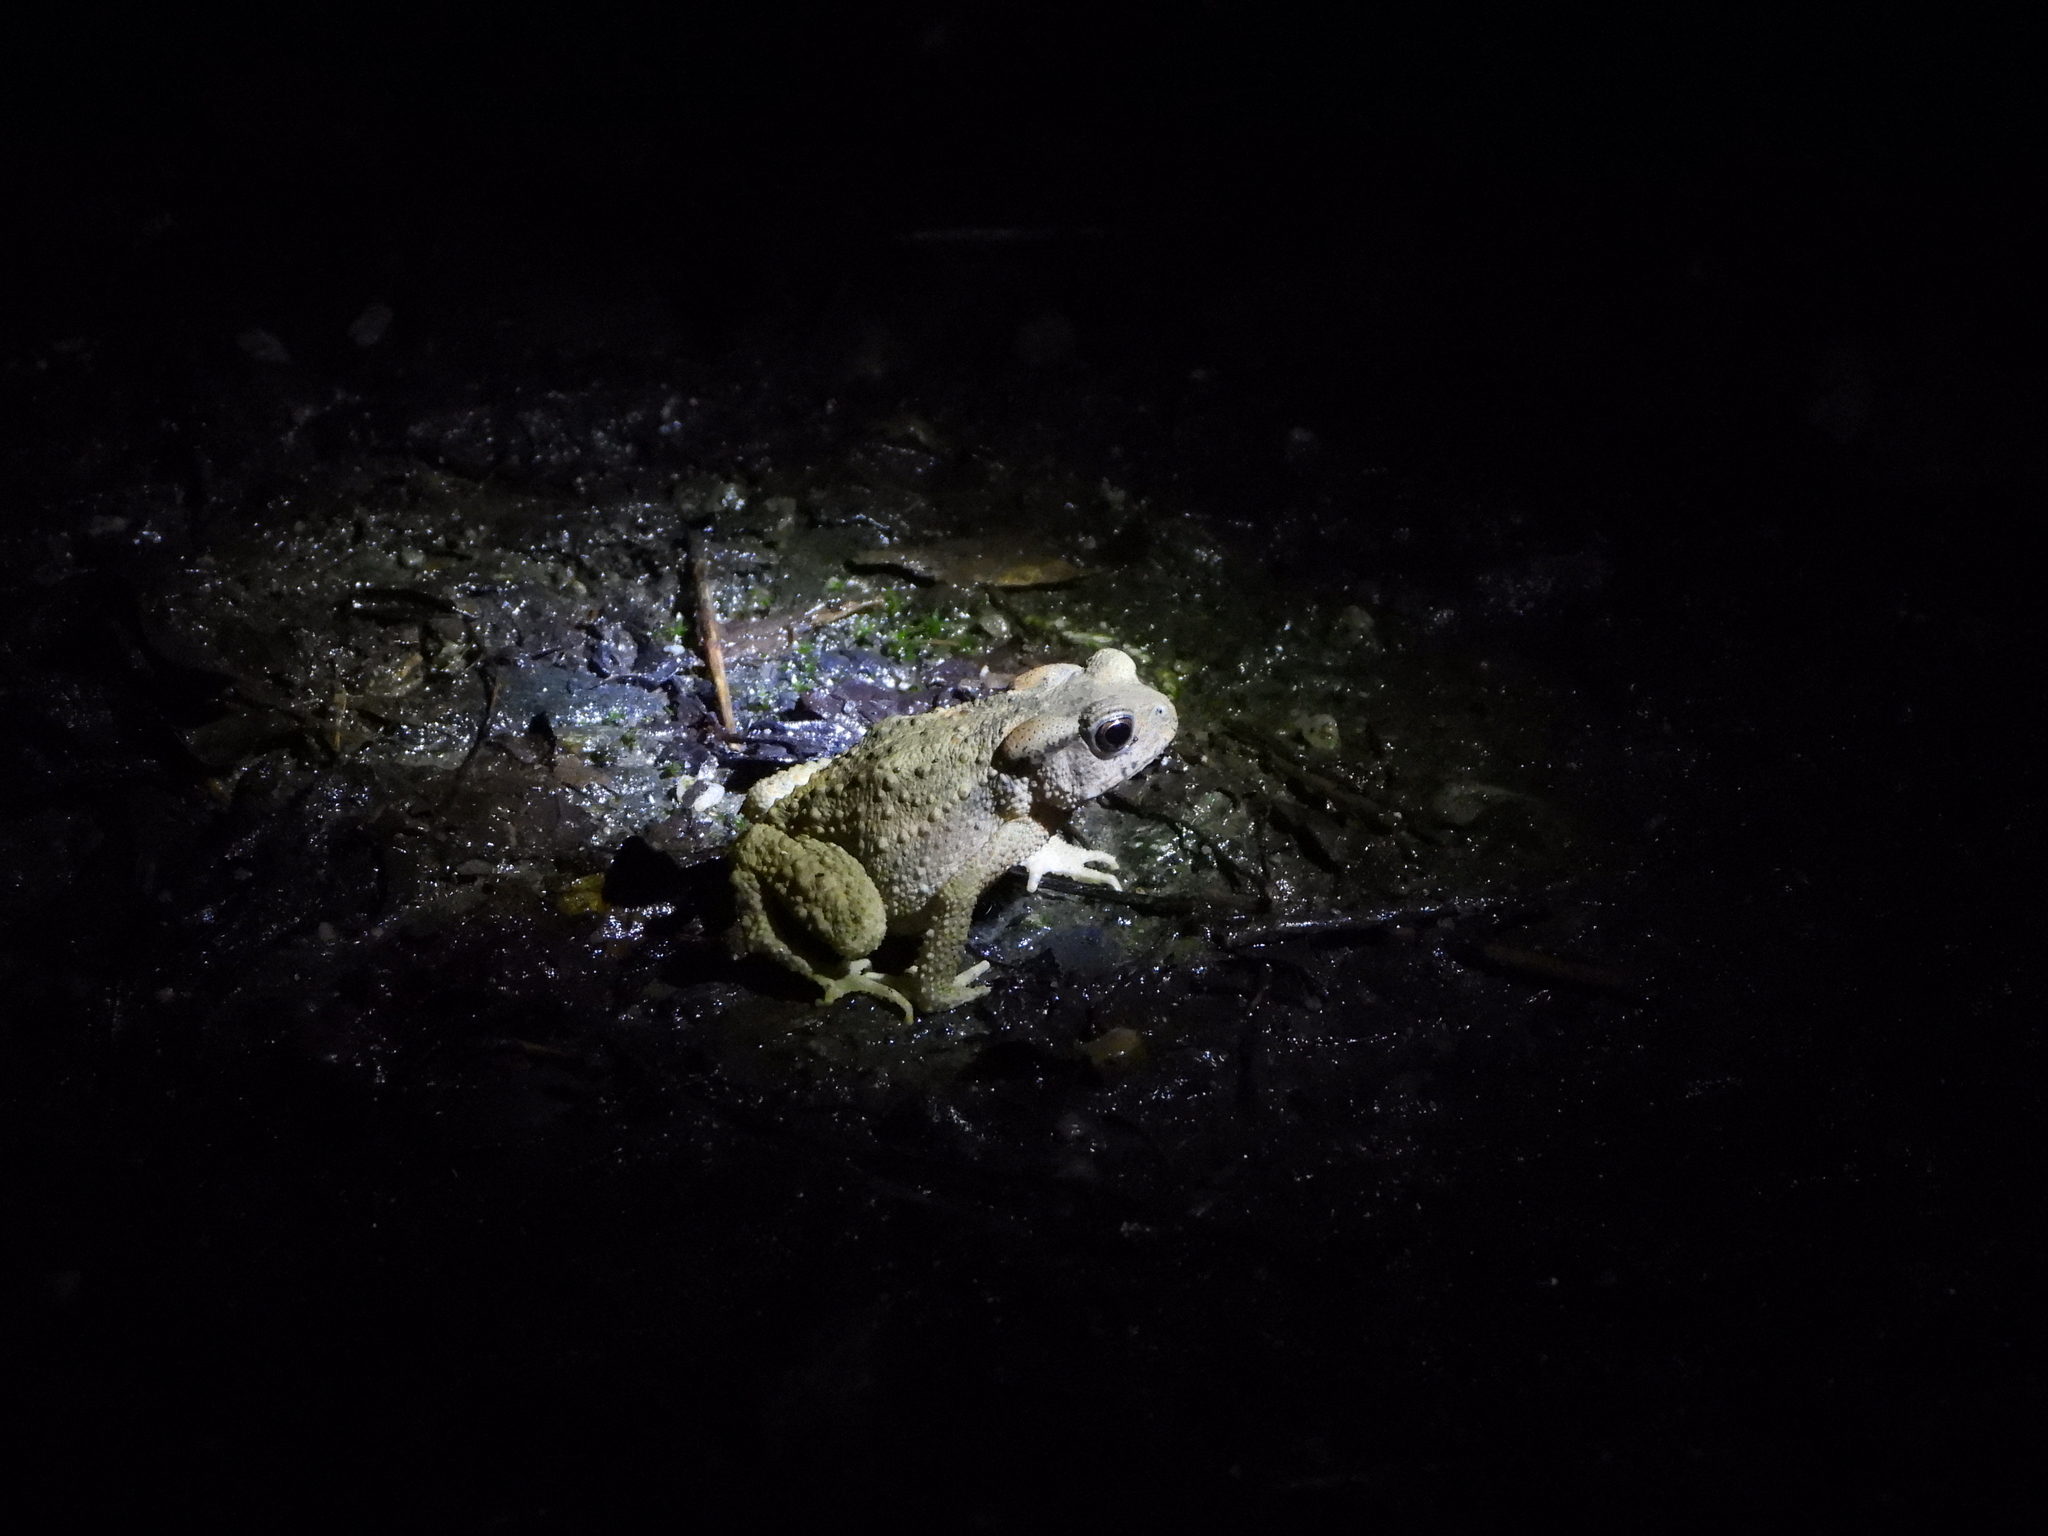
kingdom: Animalia
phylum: Chordata
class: Amphibia
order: Anura
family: Bufonidae
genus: Bufo
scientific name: Bufo bankorensis
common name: Bankor toad
